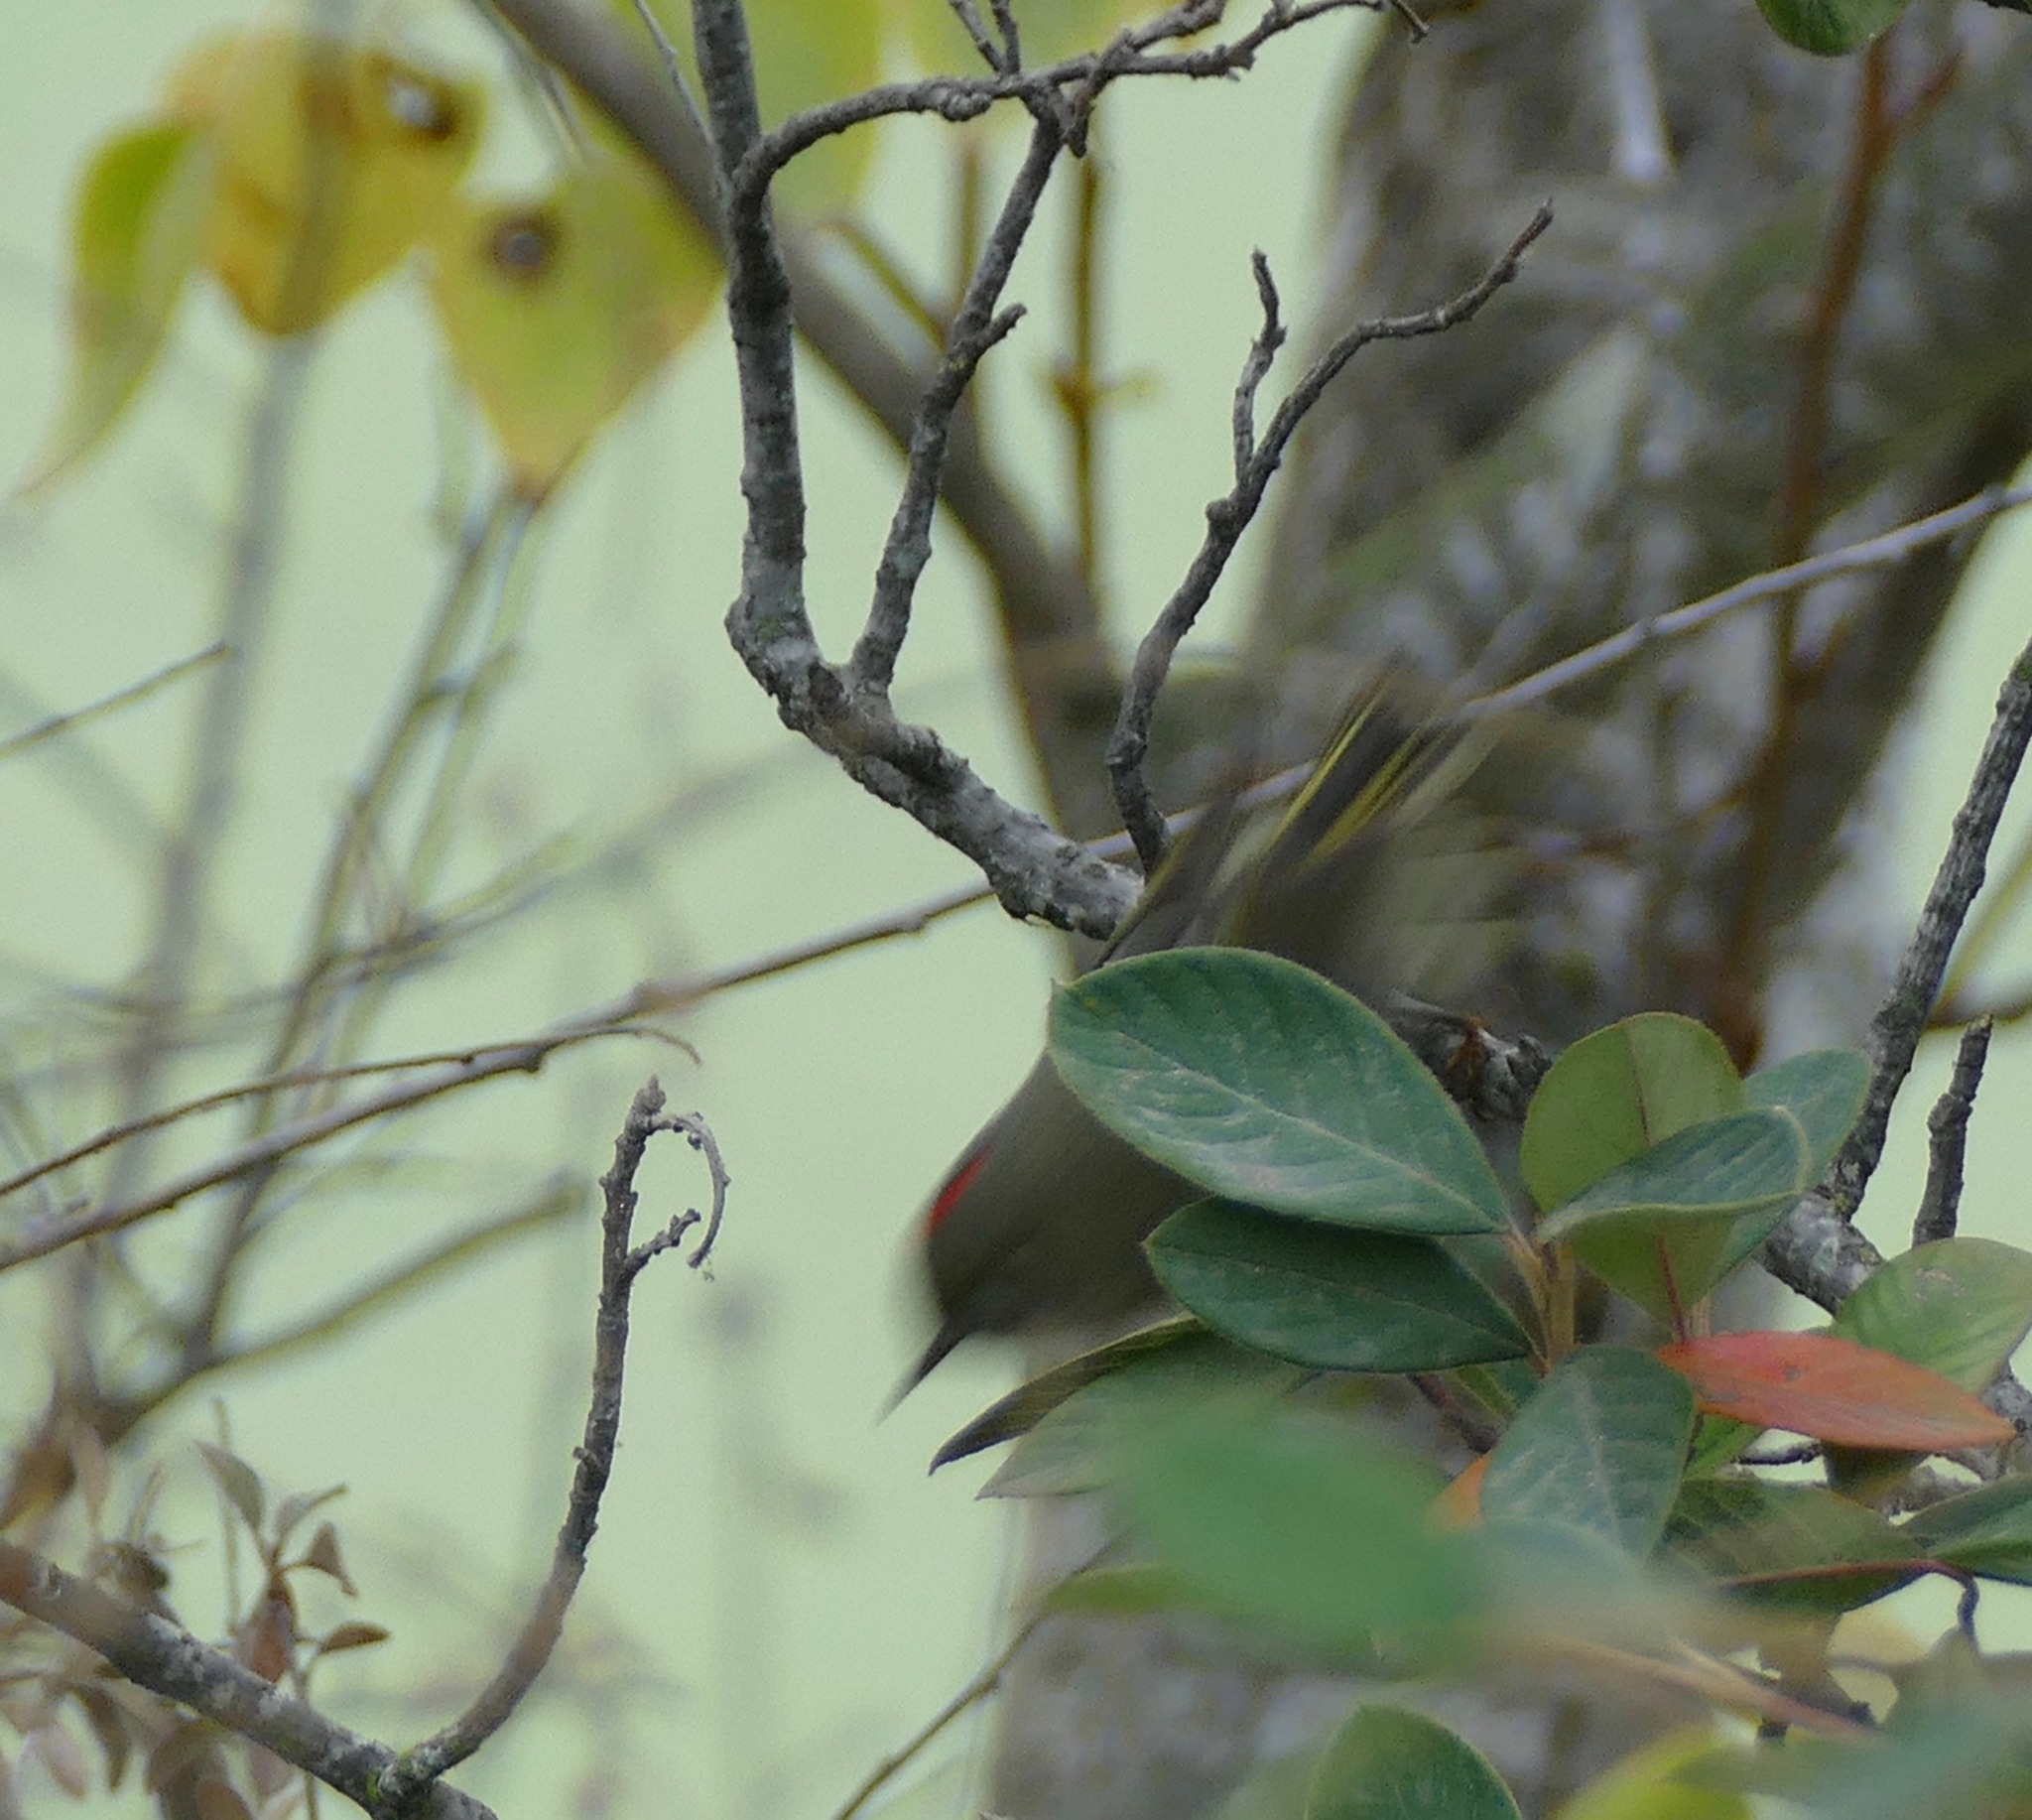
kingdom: Animalia
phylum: Chordata
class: Aves
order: Passeriformes
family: Regulidae
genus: Regulus
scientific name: Regulus calendula
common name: Ruby-crowned kinglet
